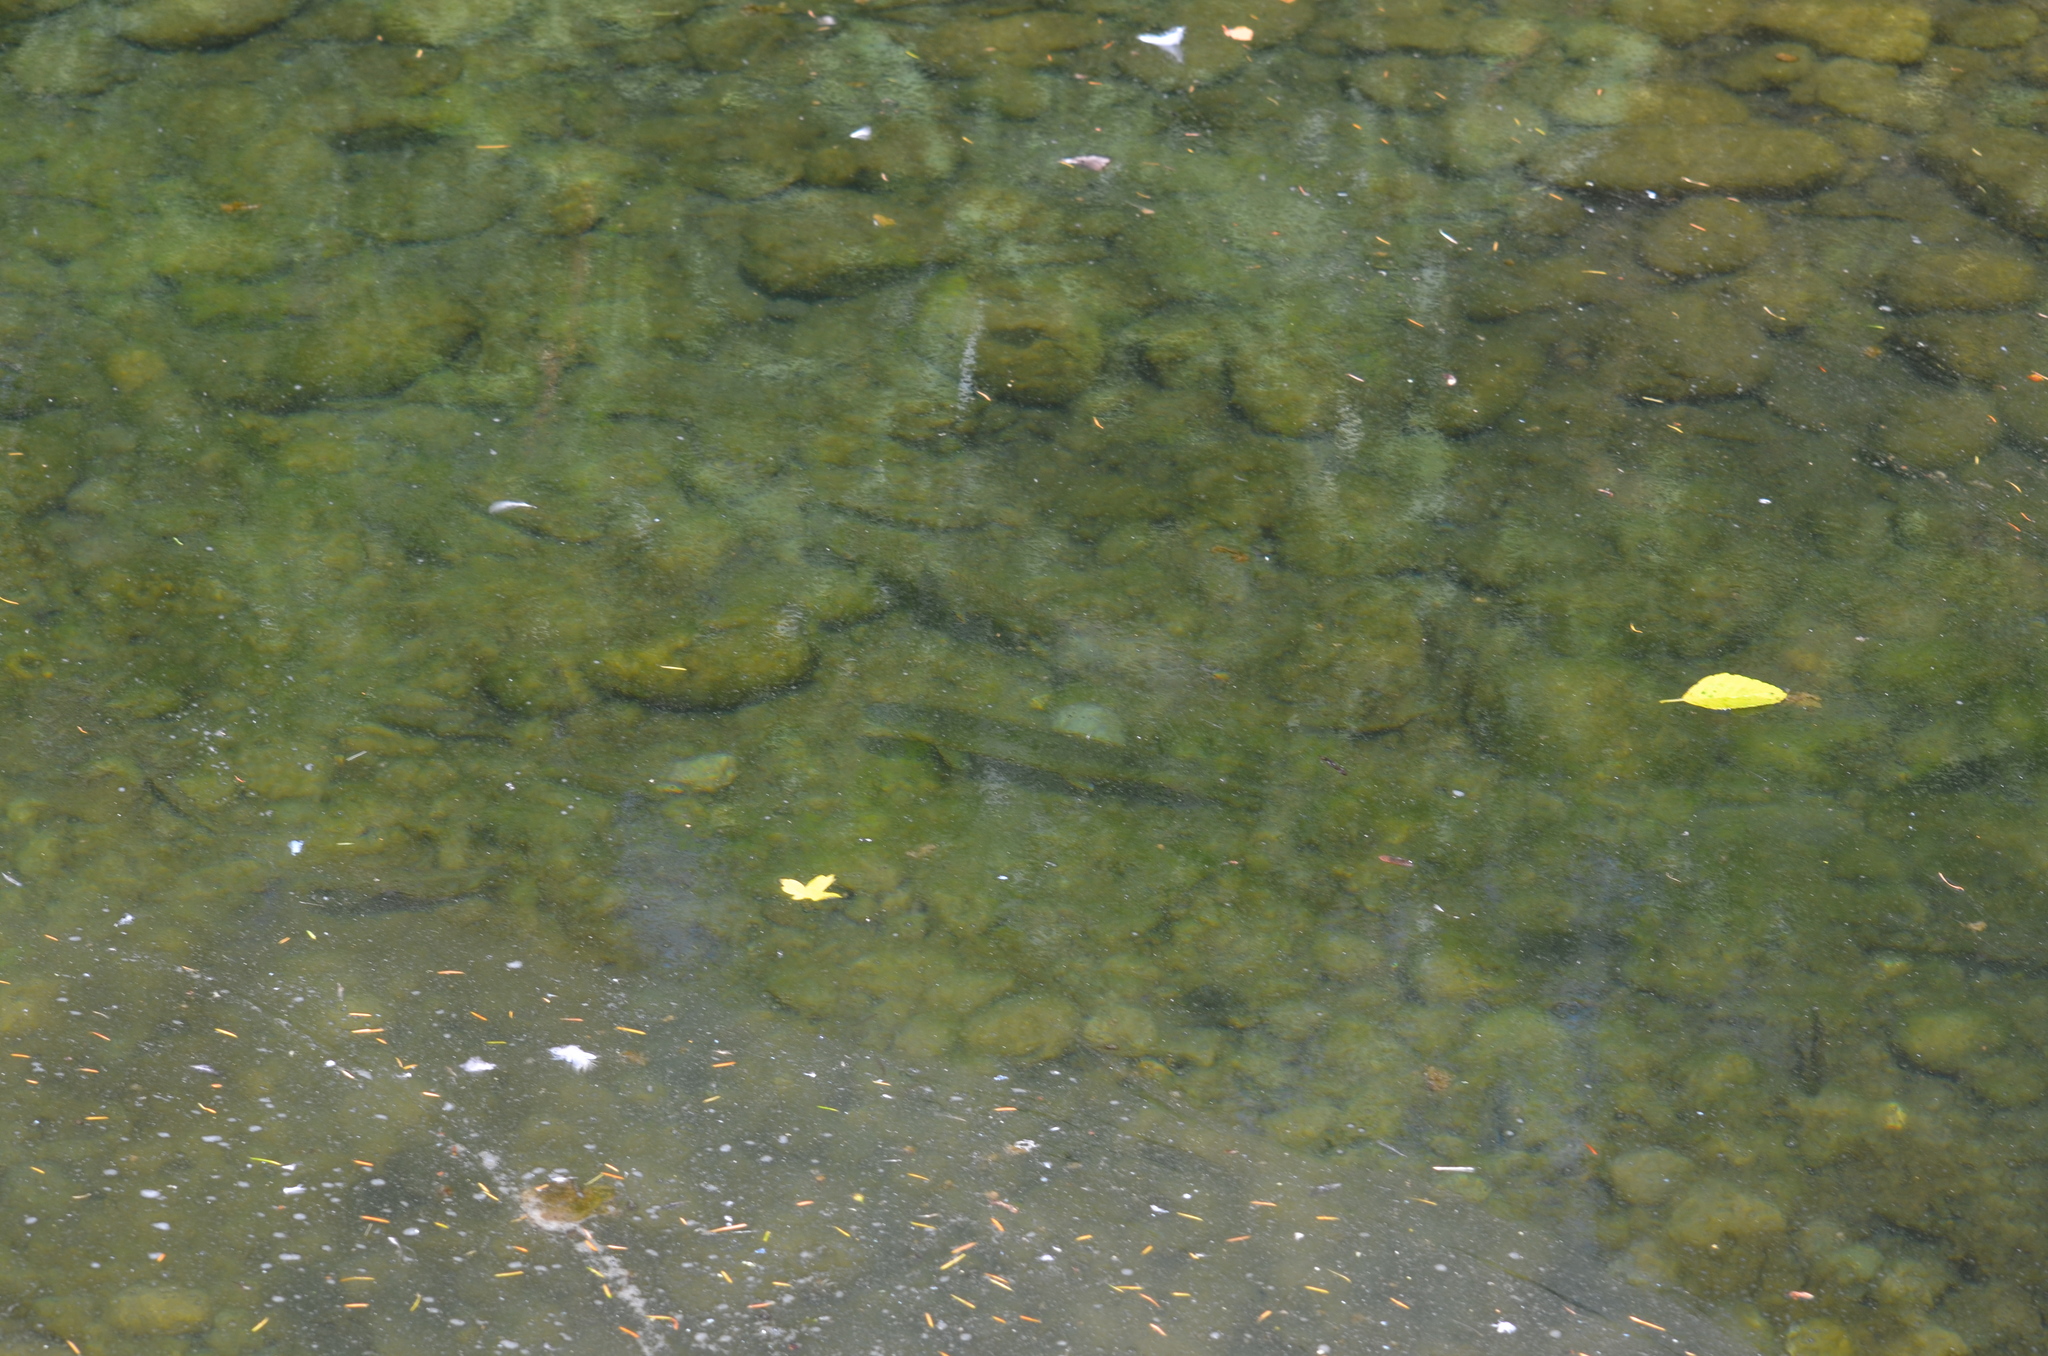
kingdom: Animalia
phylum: Chordata
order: Salmoniformes
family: Salmonidae
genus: Oncorhynchus
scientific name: Oncorhynchus gorbuscha
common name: Humpback salmon
